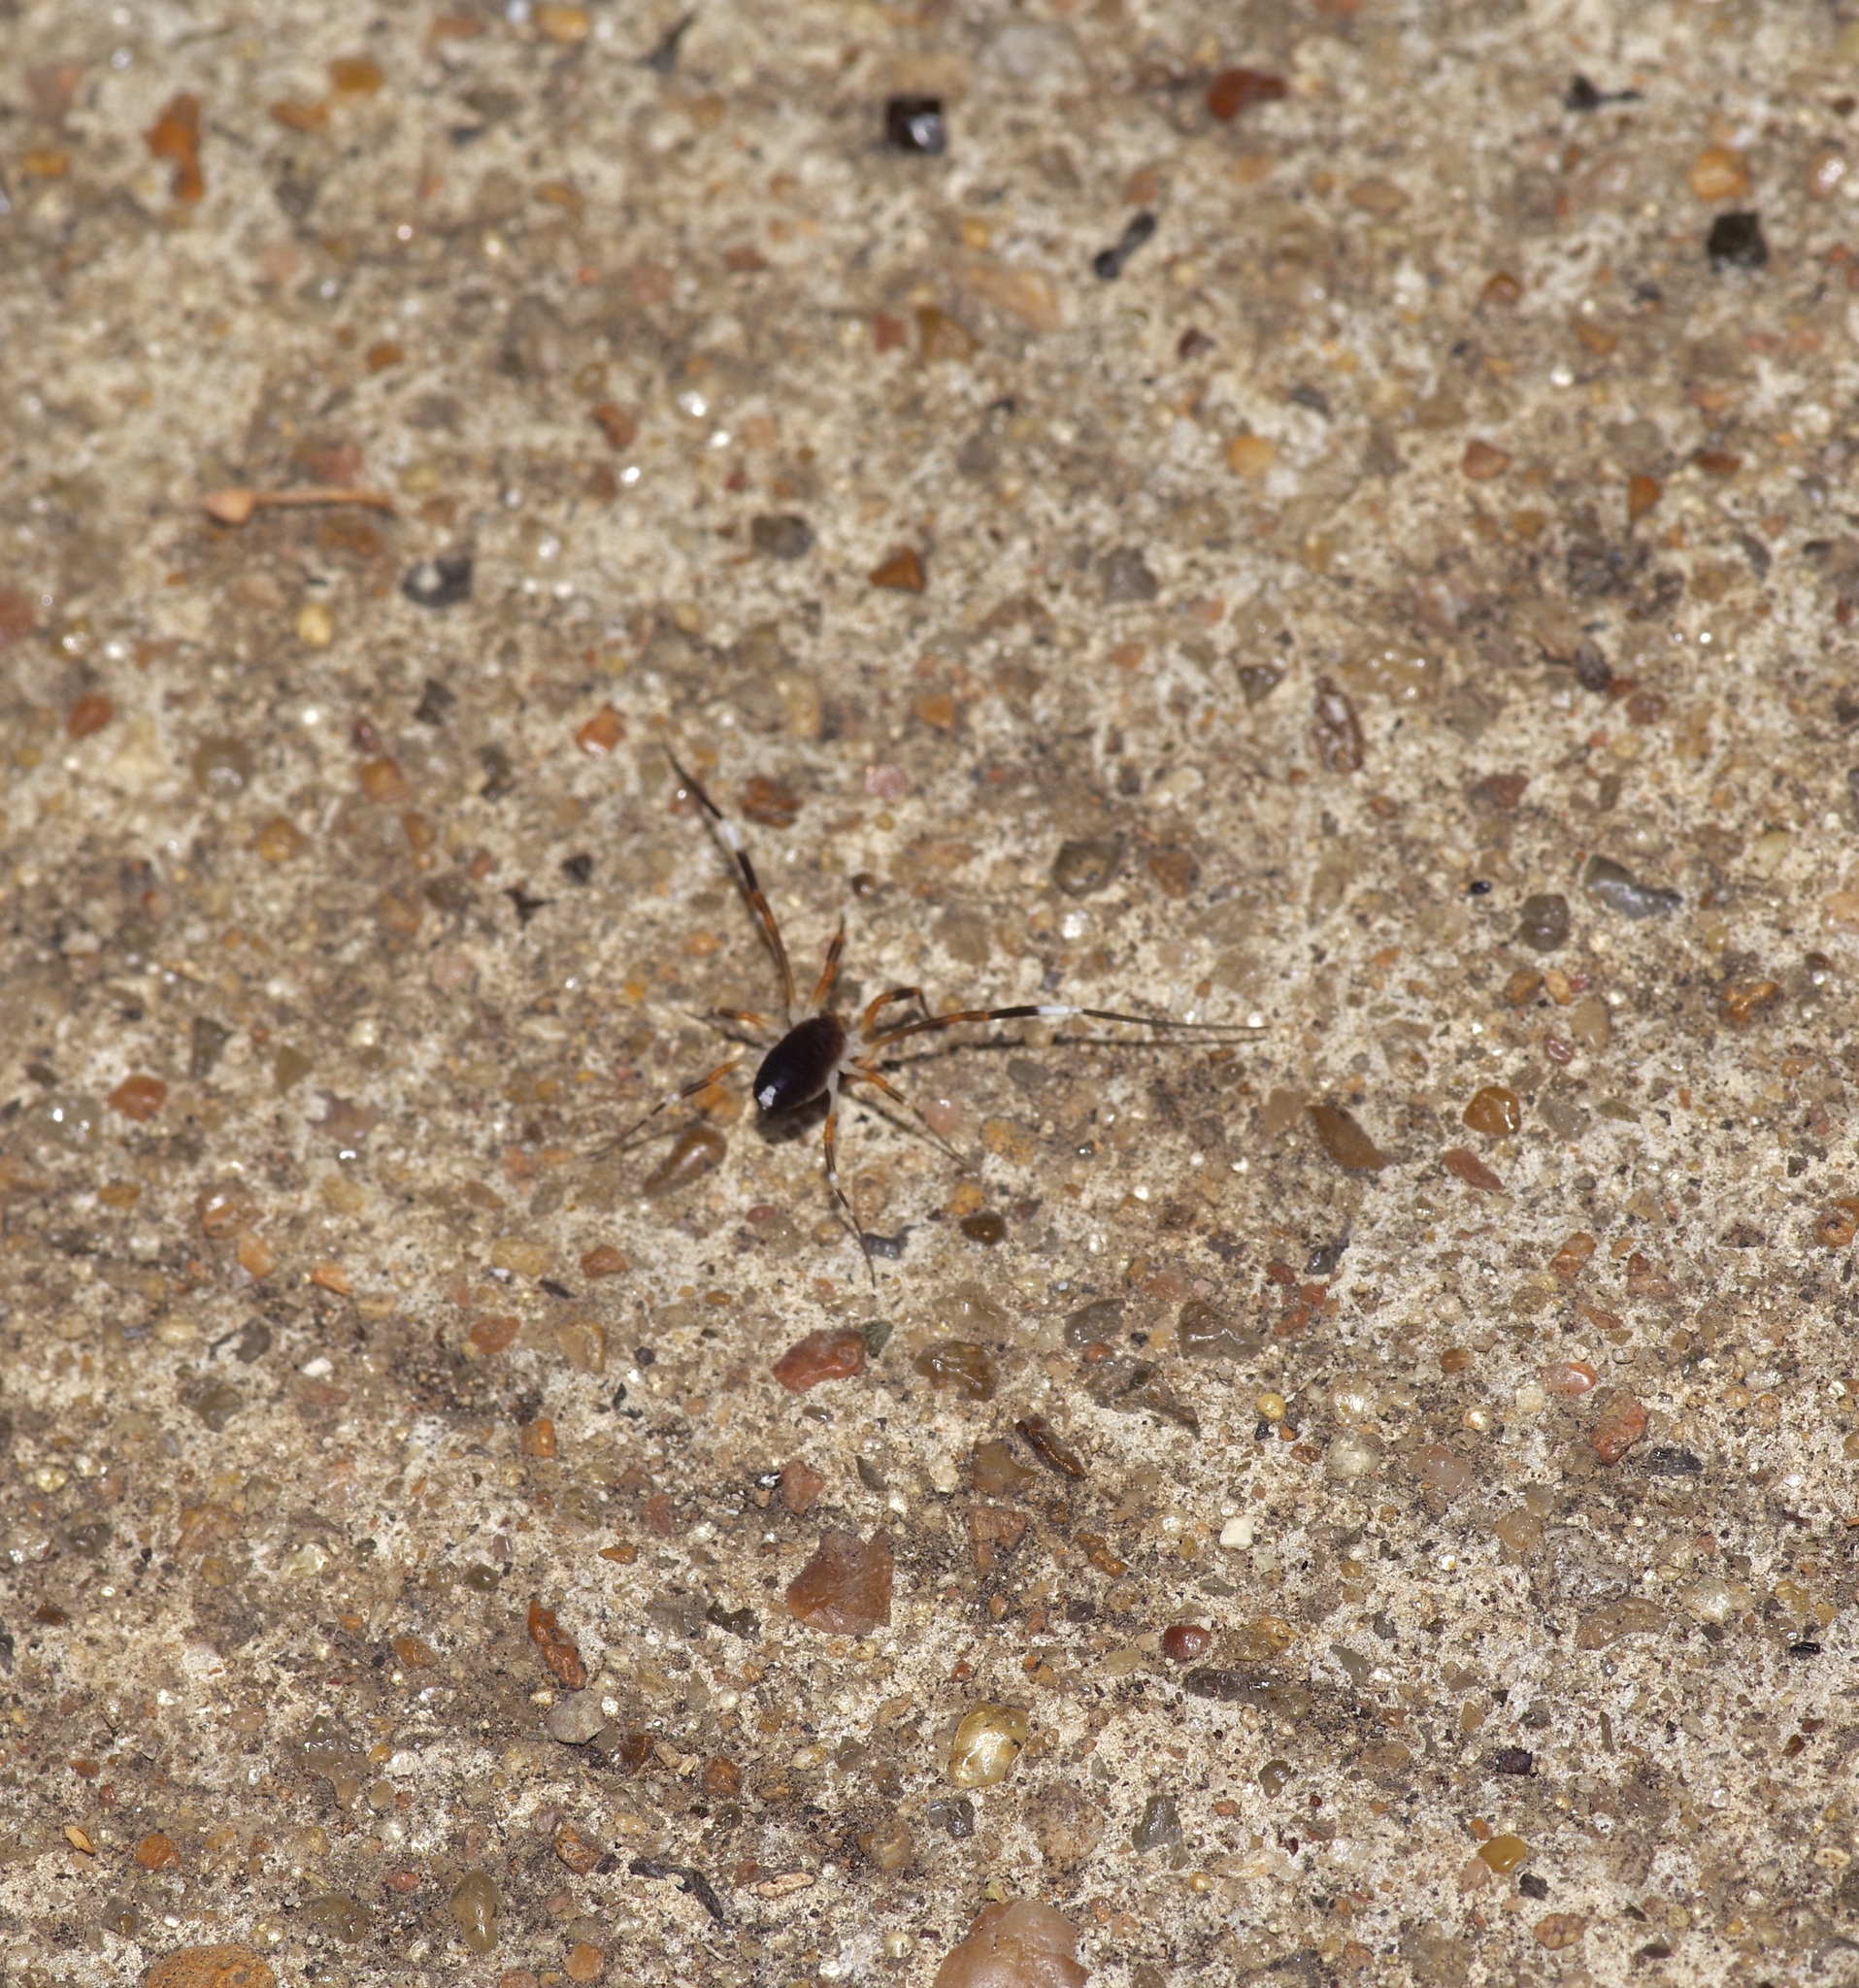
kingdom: Animalia
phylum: Arthropoda
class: Arachnida
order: Opiliones
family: Globipedidae
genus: Dalquestia
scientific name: Dalquestia formosa
